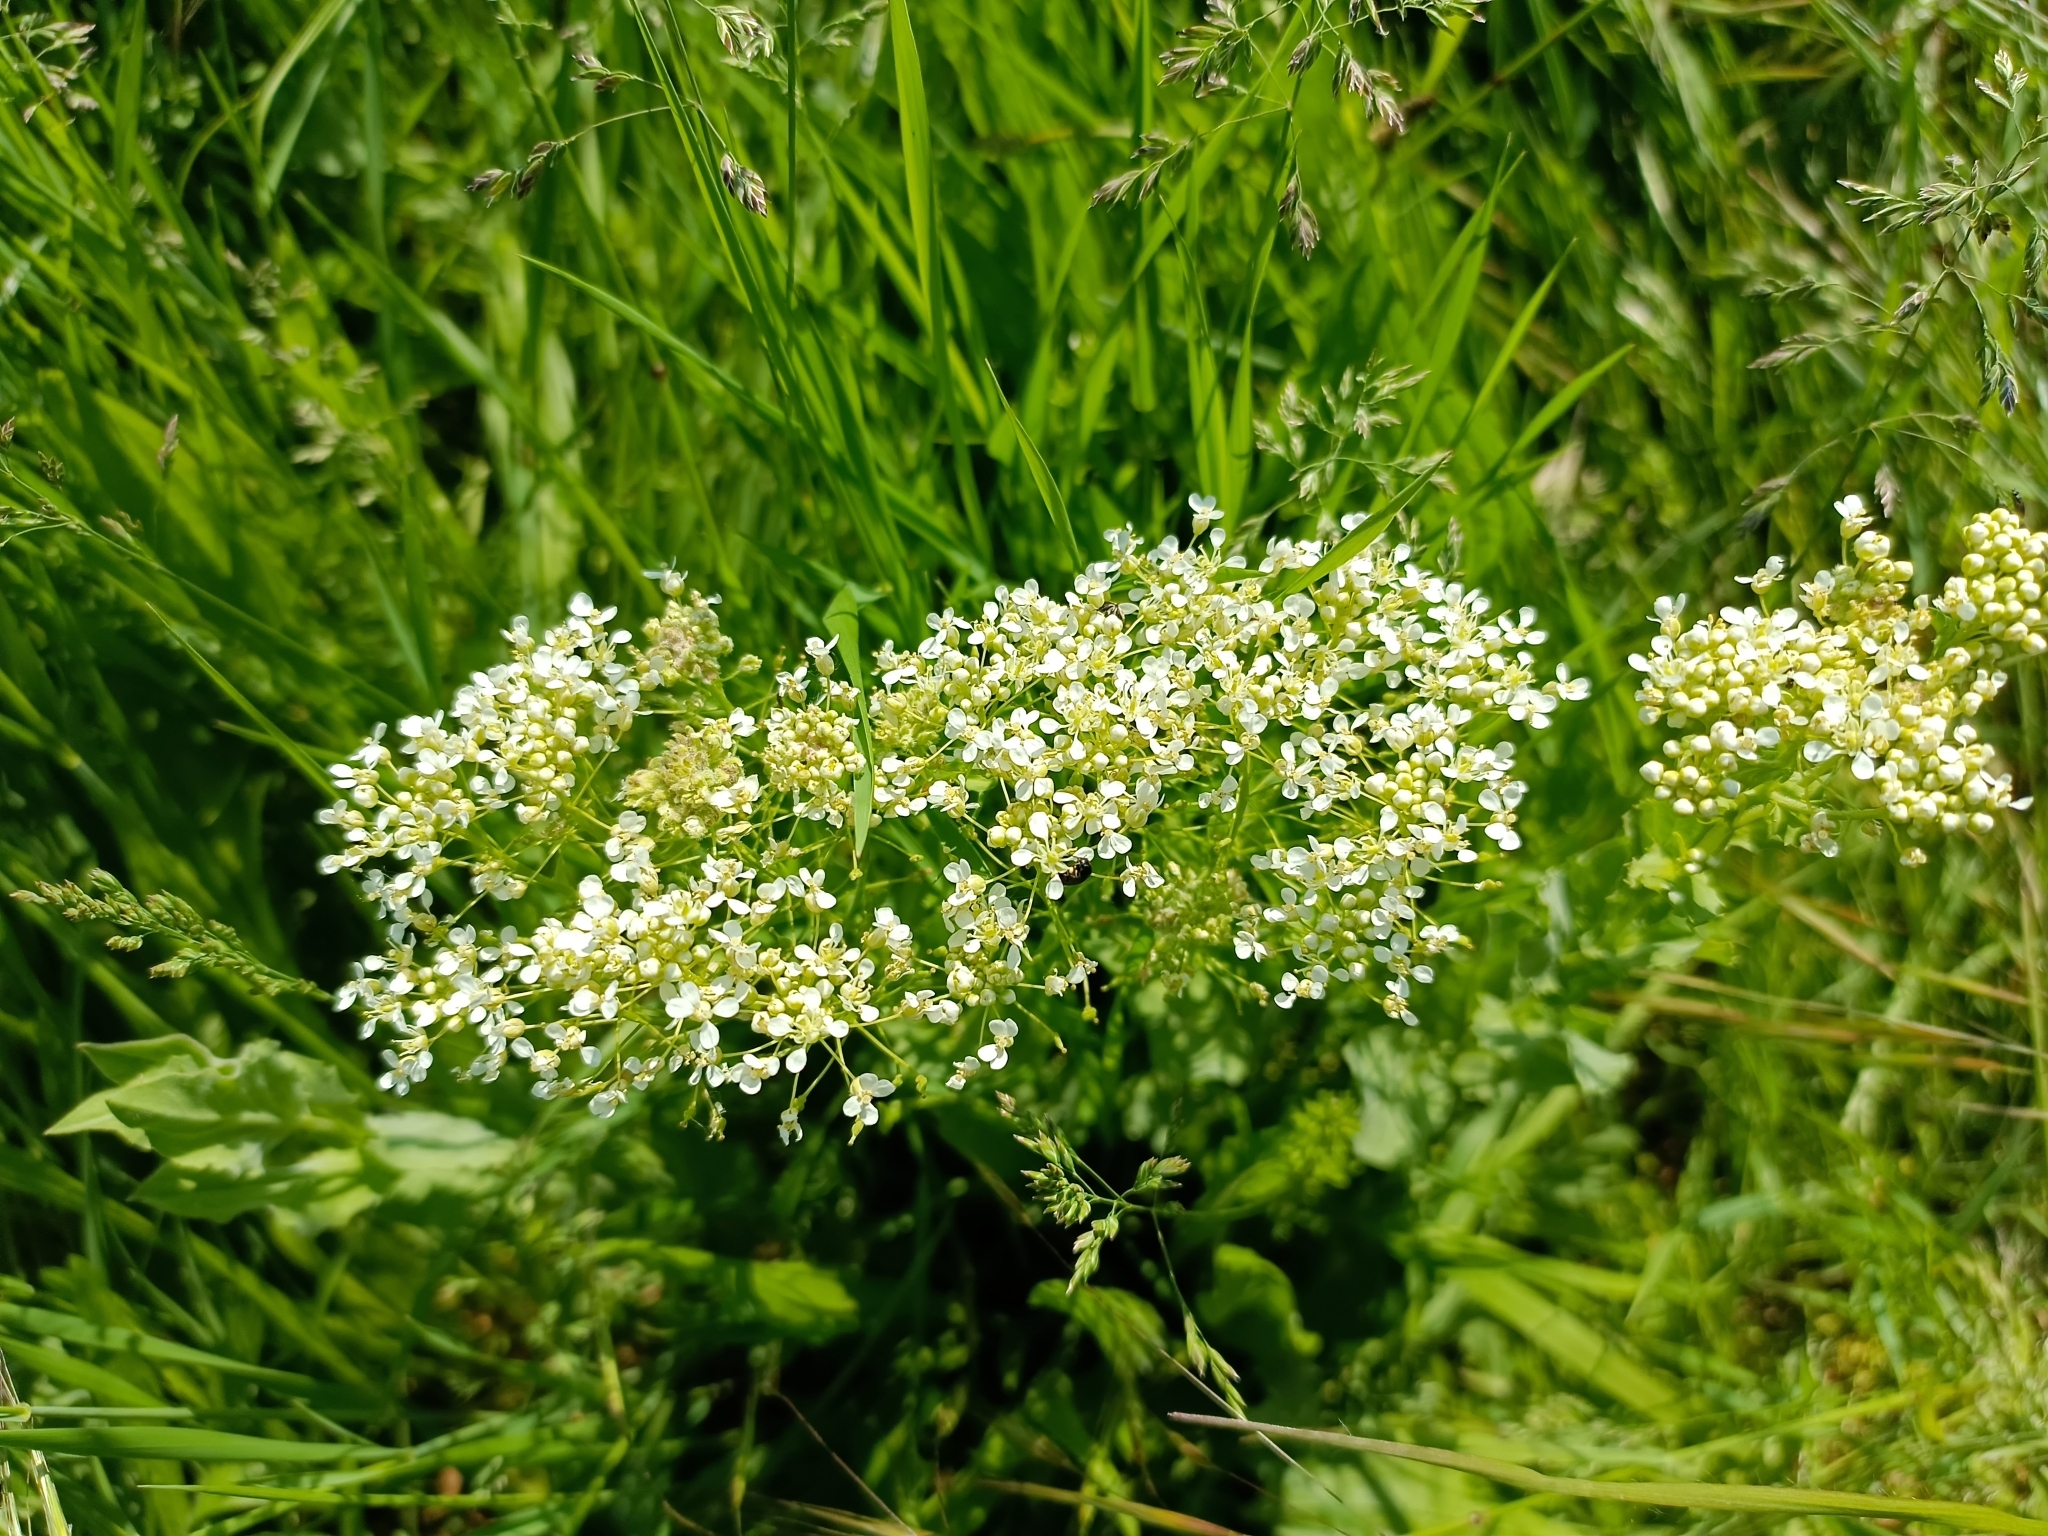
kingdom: Plantae
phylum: Tracheophyta
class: Magnoliopsida
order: Brassicales
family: Brassicaceae
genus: Lepidium
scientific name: Lepidium draba
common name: Hoary cress
